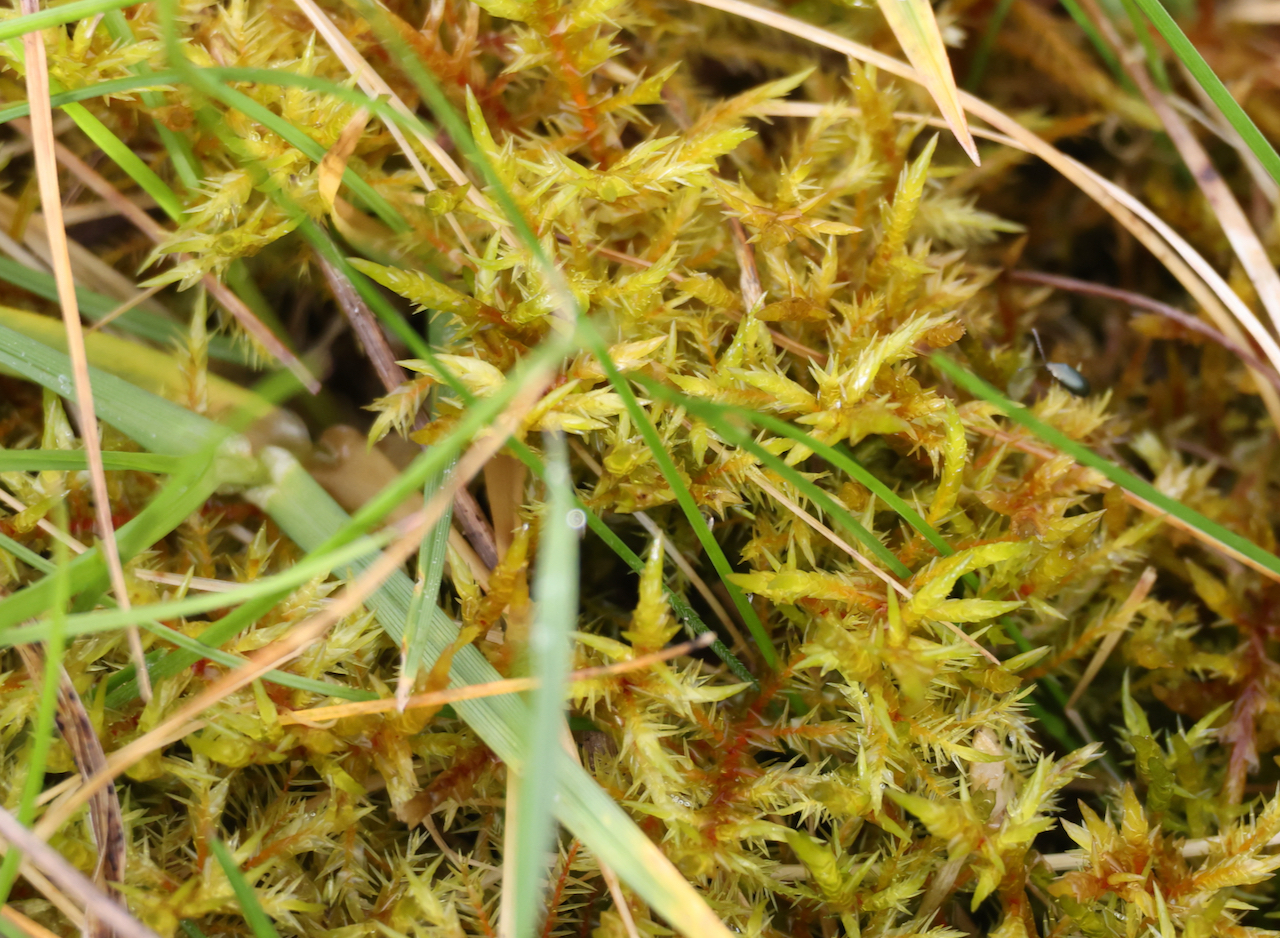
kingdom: Plantae
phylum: Bryophyta
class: Bryopsida
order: Hypnales
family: Pylaisiaceae
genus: Calliergonella
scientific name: Calliergonella cuspidata
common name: Common large wetland moss
